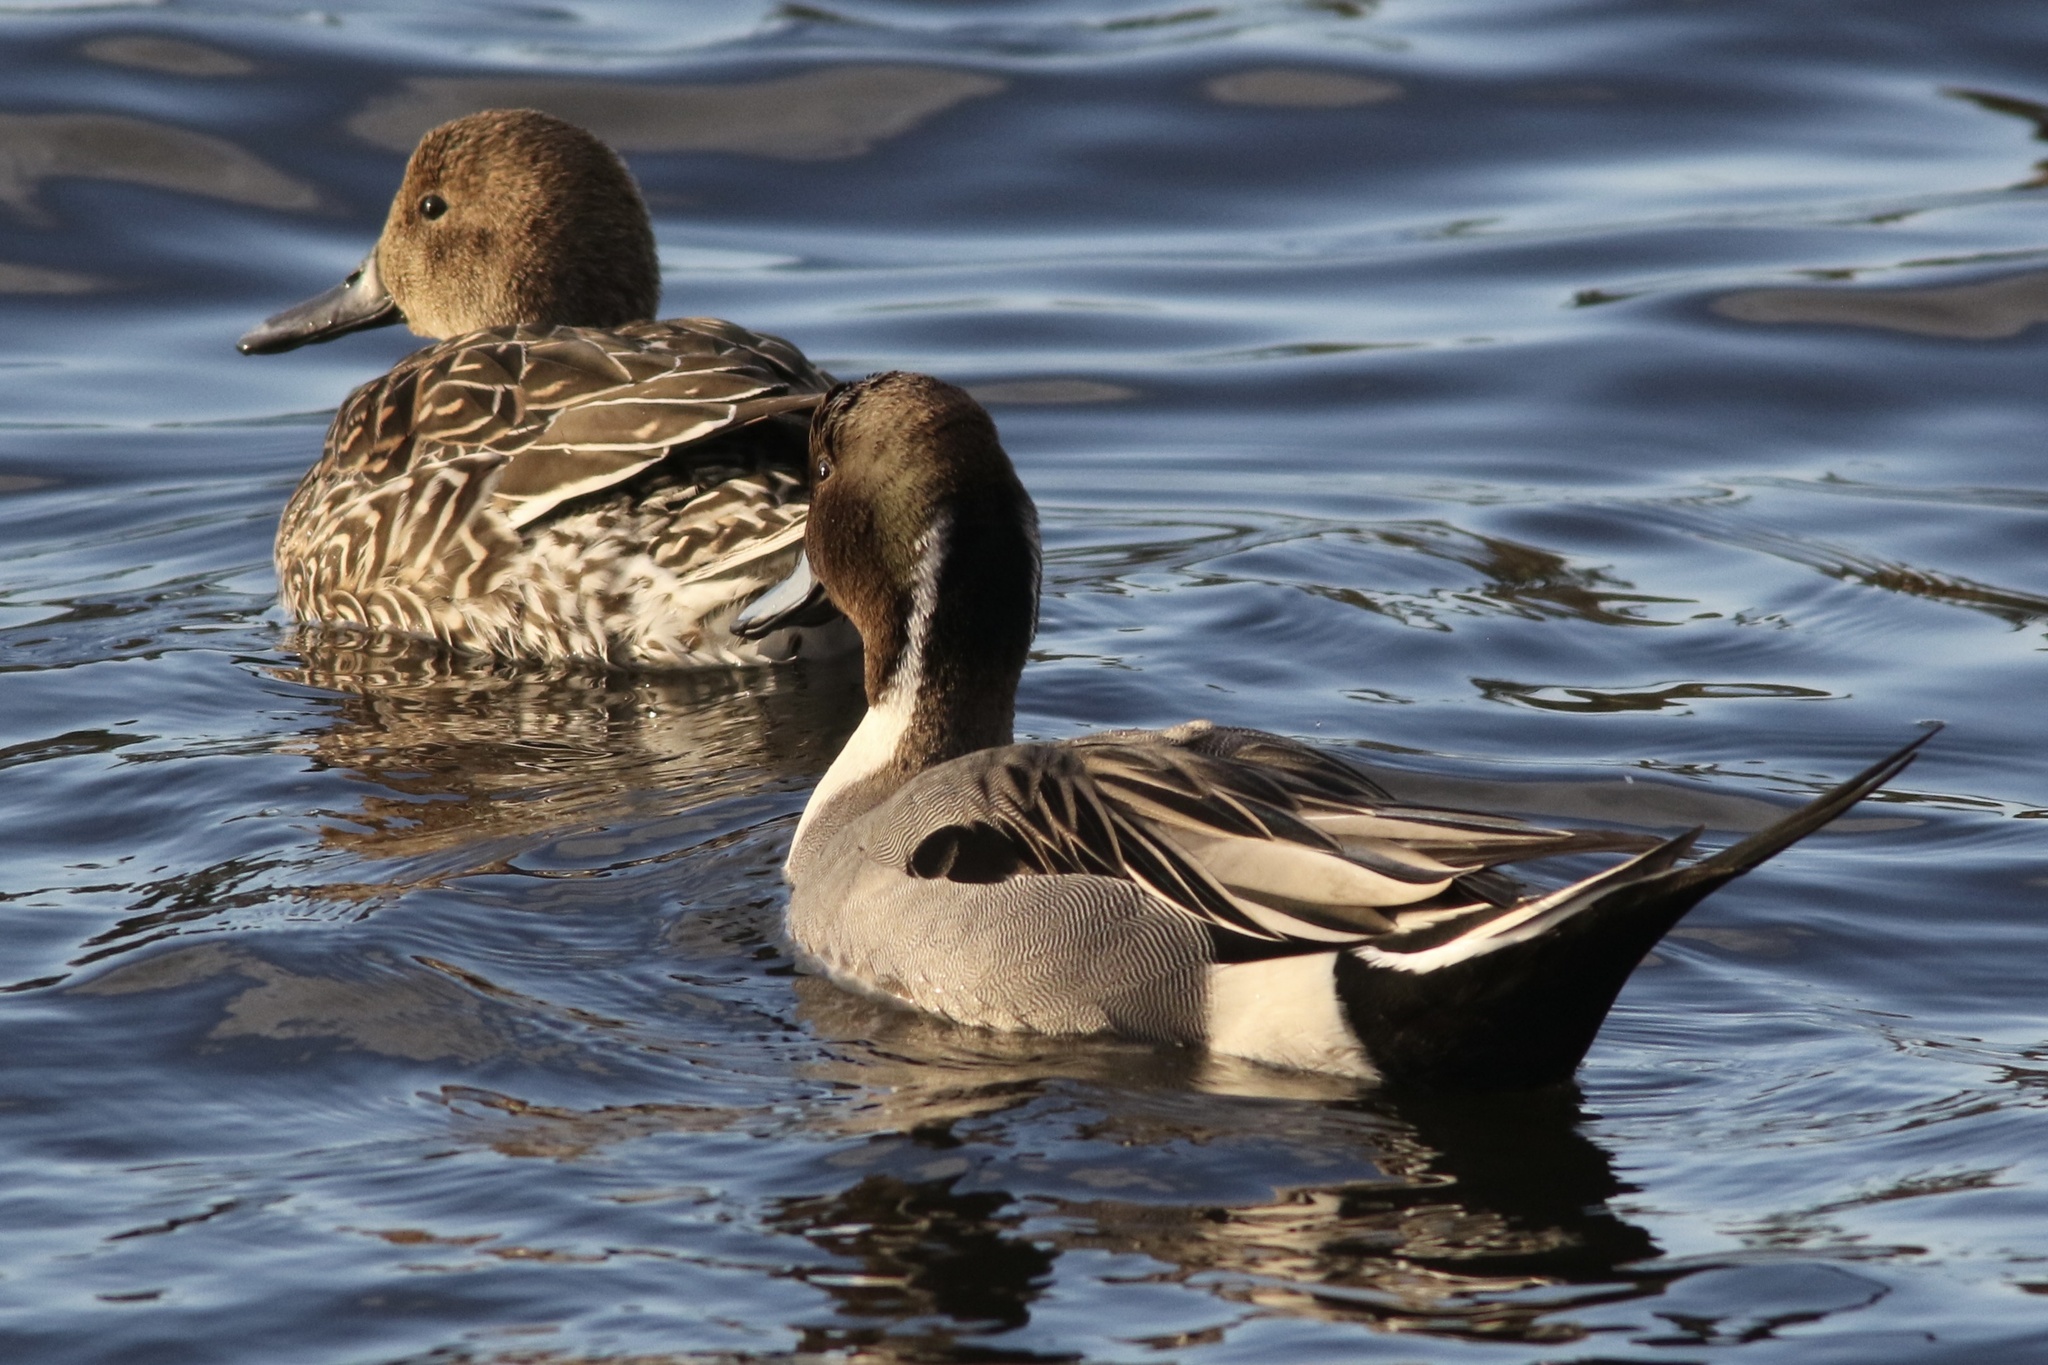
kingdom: Animalia
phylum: Chordata
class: Aves
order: Anseriformes
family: Anatidae
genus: Anas
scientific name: Anas acuta
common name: Northern pintail
